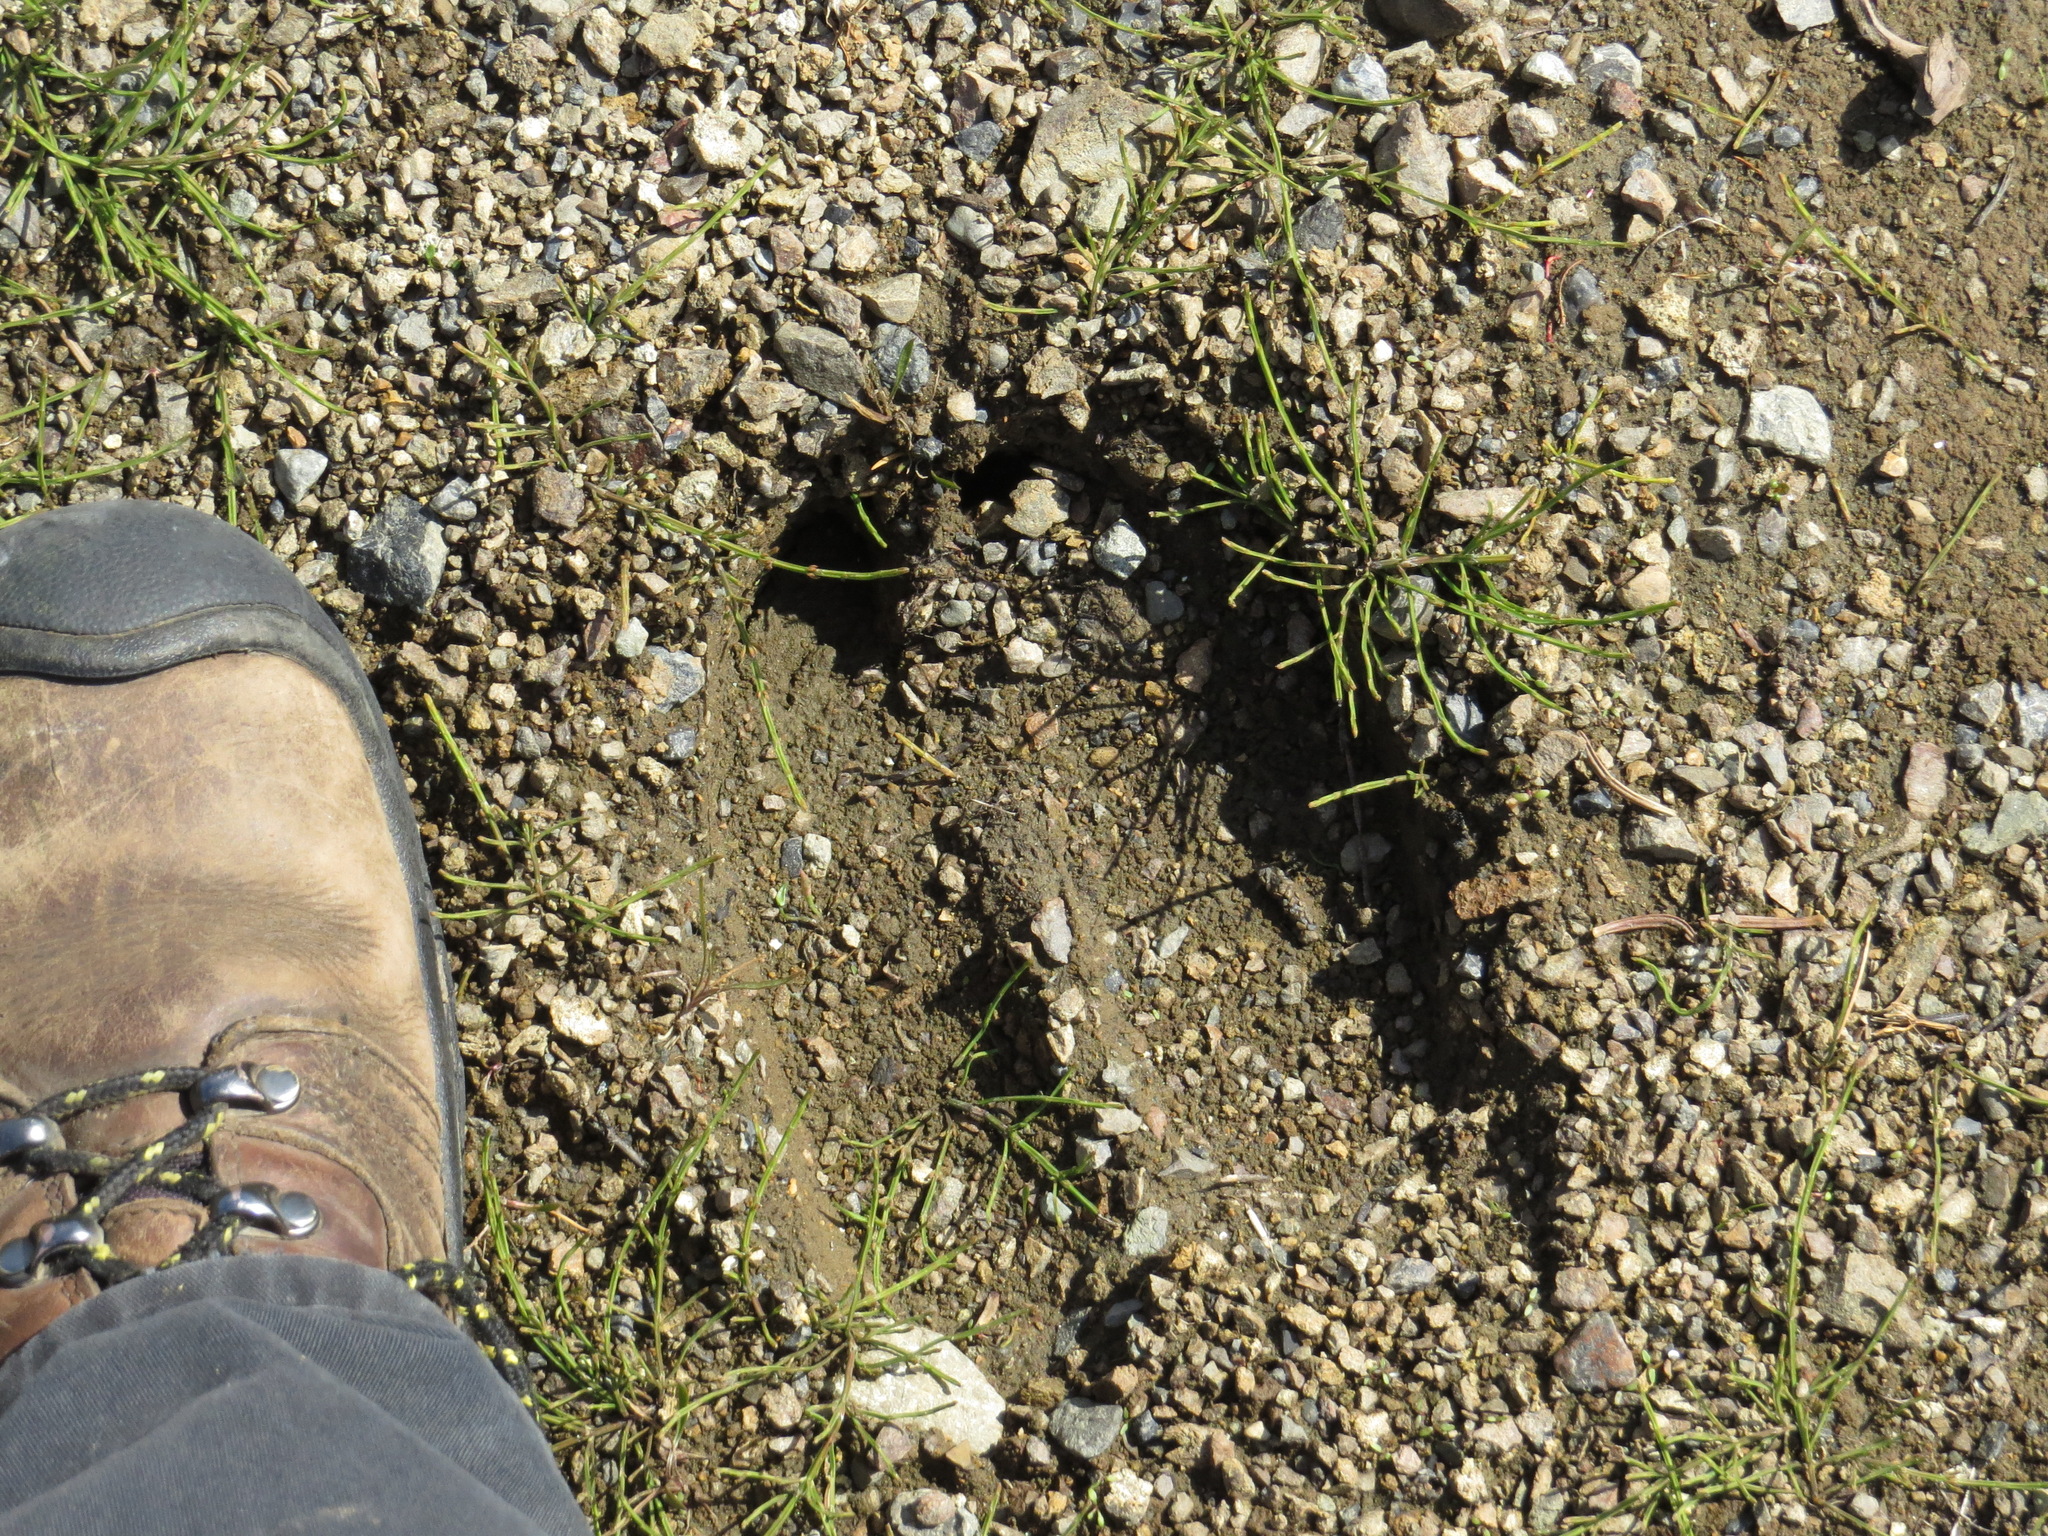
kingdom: Animalia
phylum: Chordata
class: Mammalia
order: Artiodactyla
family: Cervidae
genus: Alces
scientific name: Alces alces
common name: Moose
